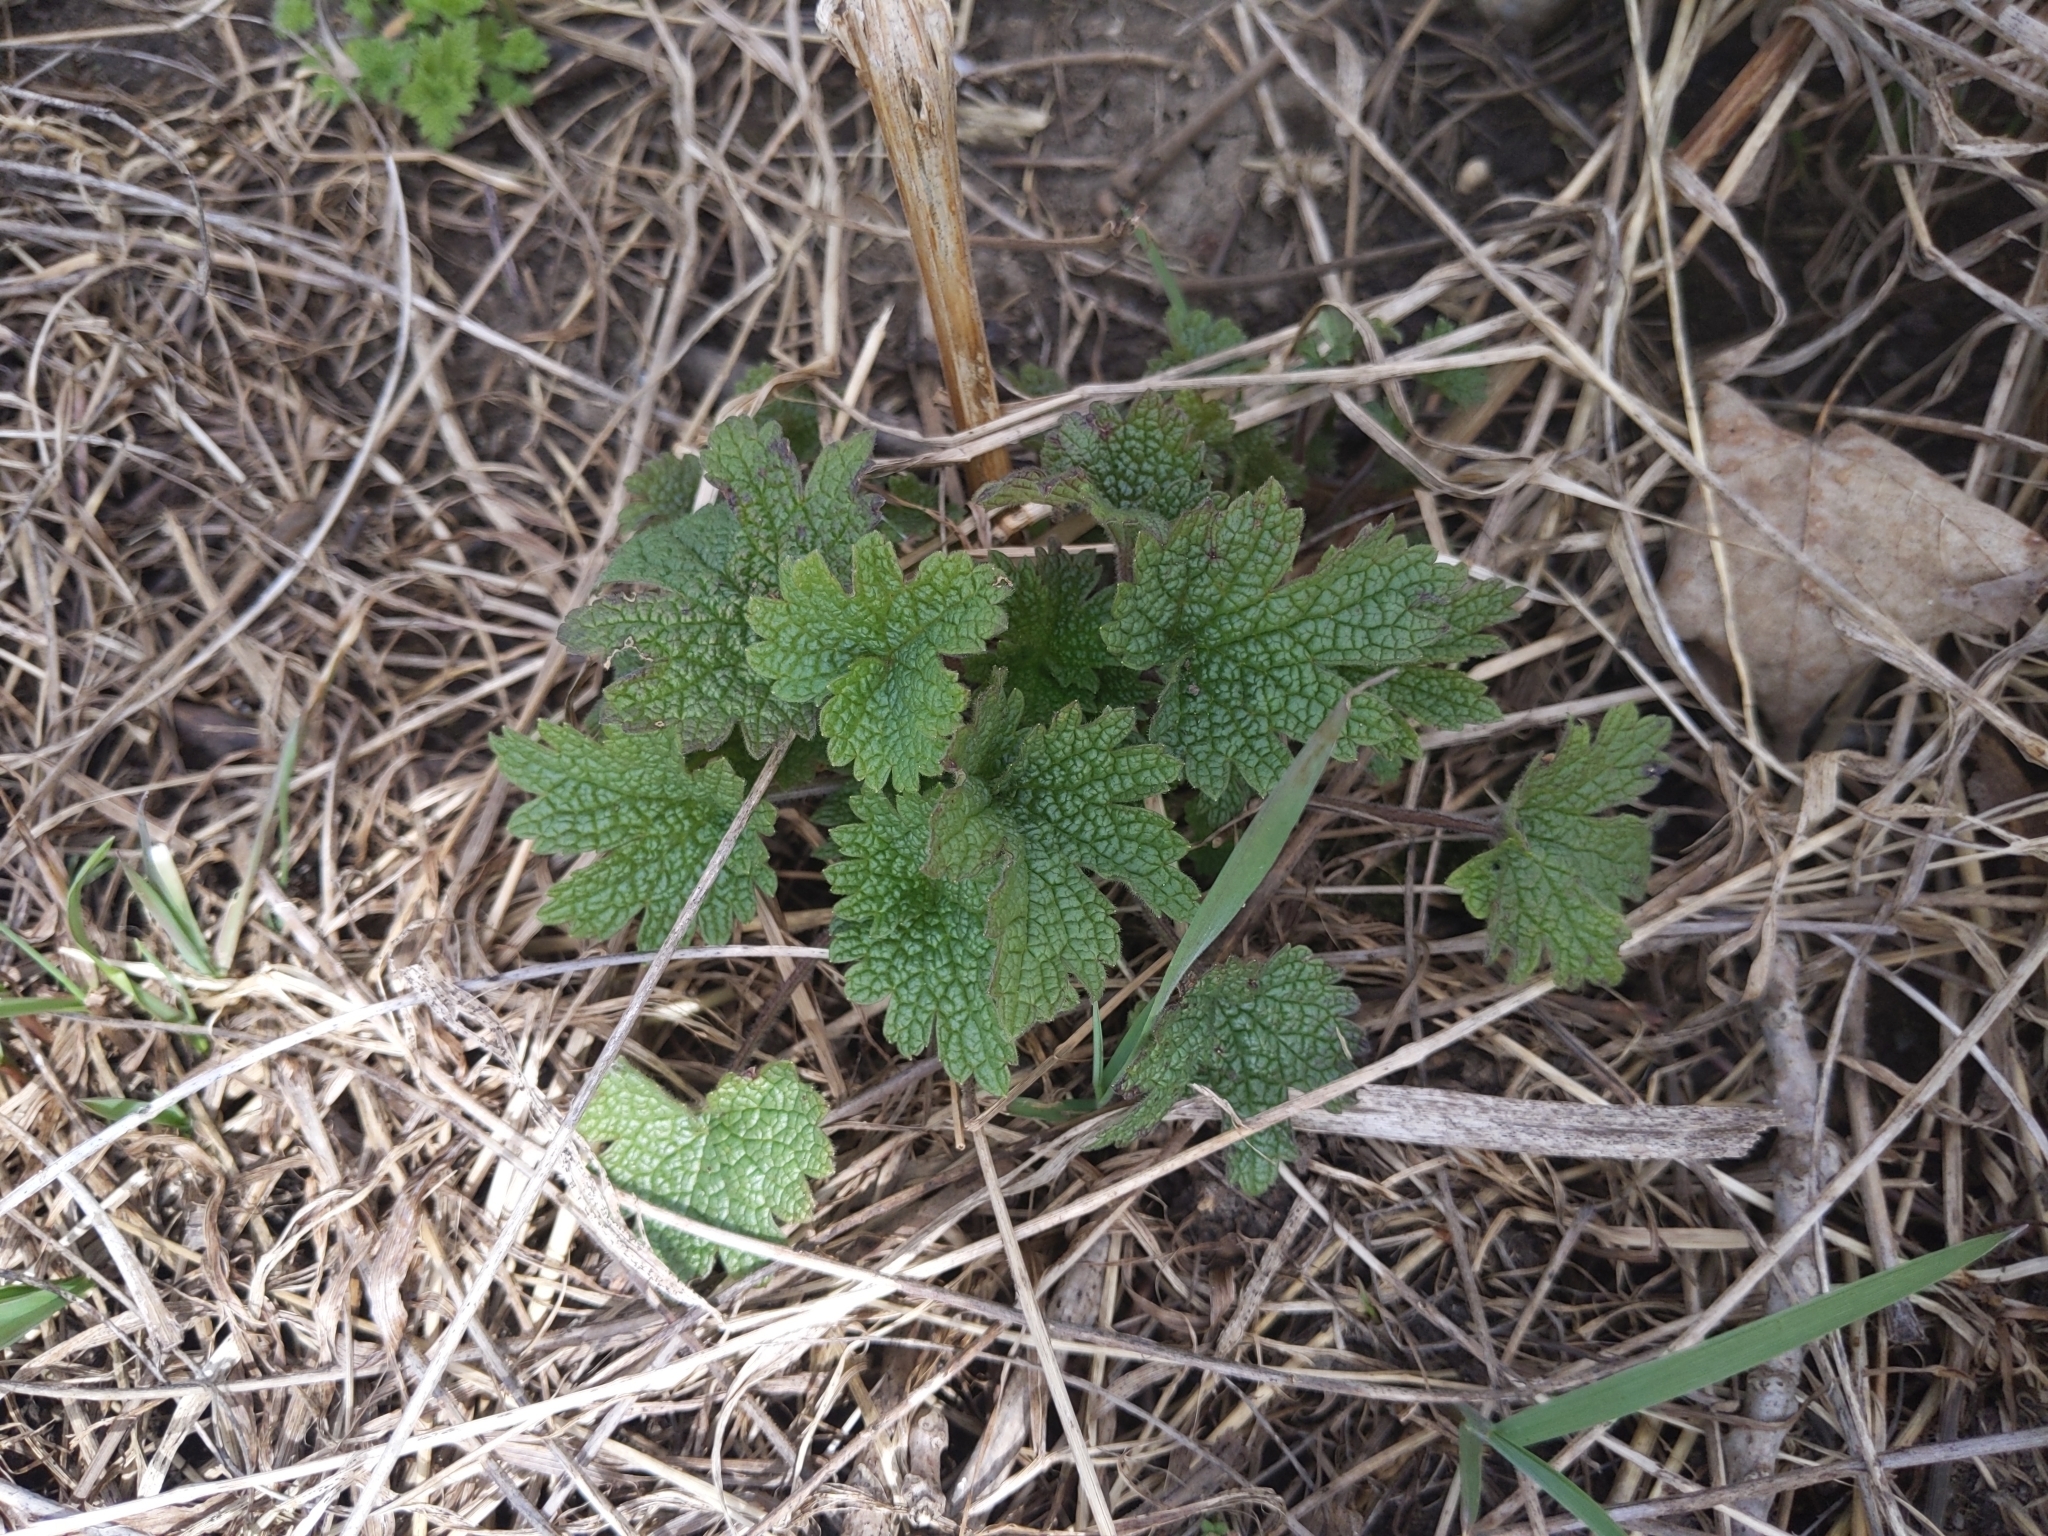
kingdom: Plantae
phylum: Tracheophyta
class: Magnoliopsida
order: Lamiales
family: Lamiaceae
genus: Leonurus
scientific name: Leonurus cardiaca
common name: Motherwort
